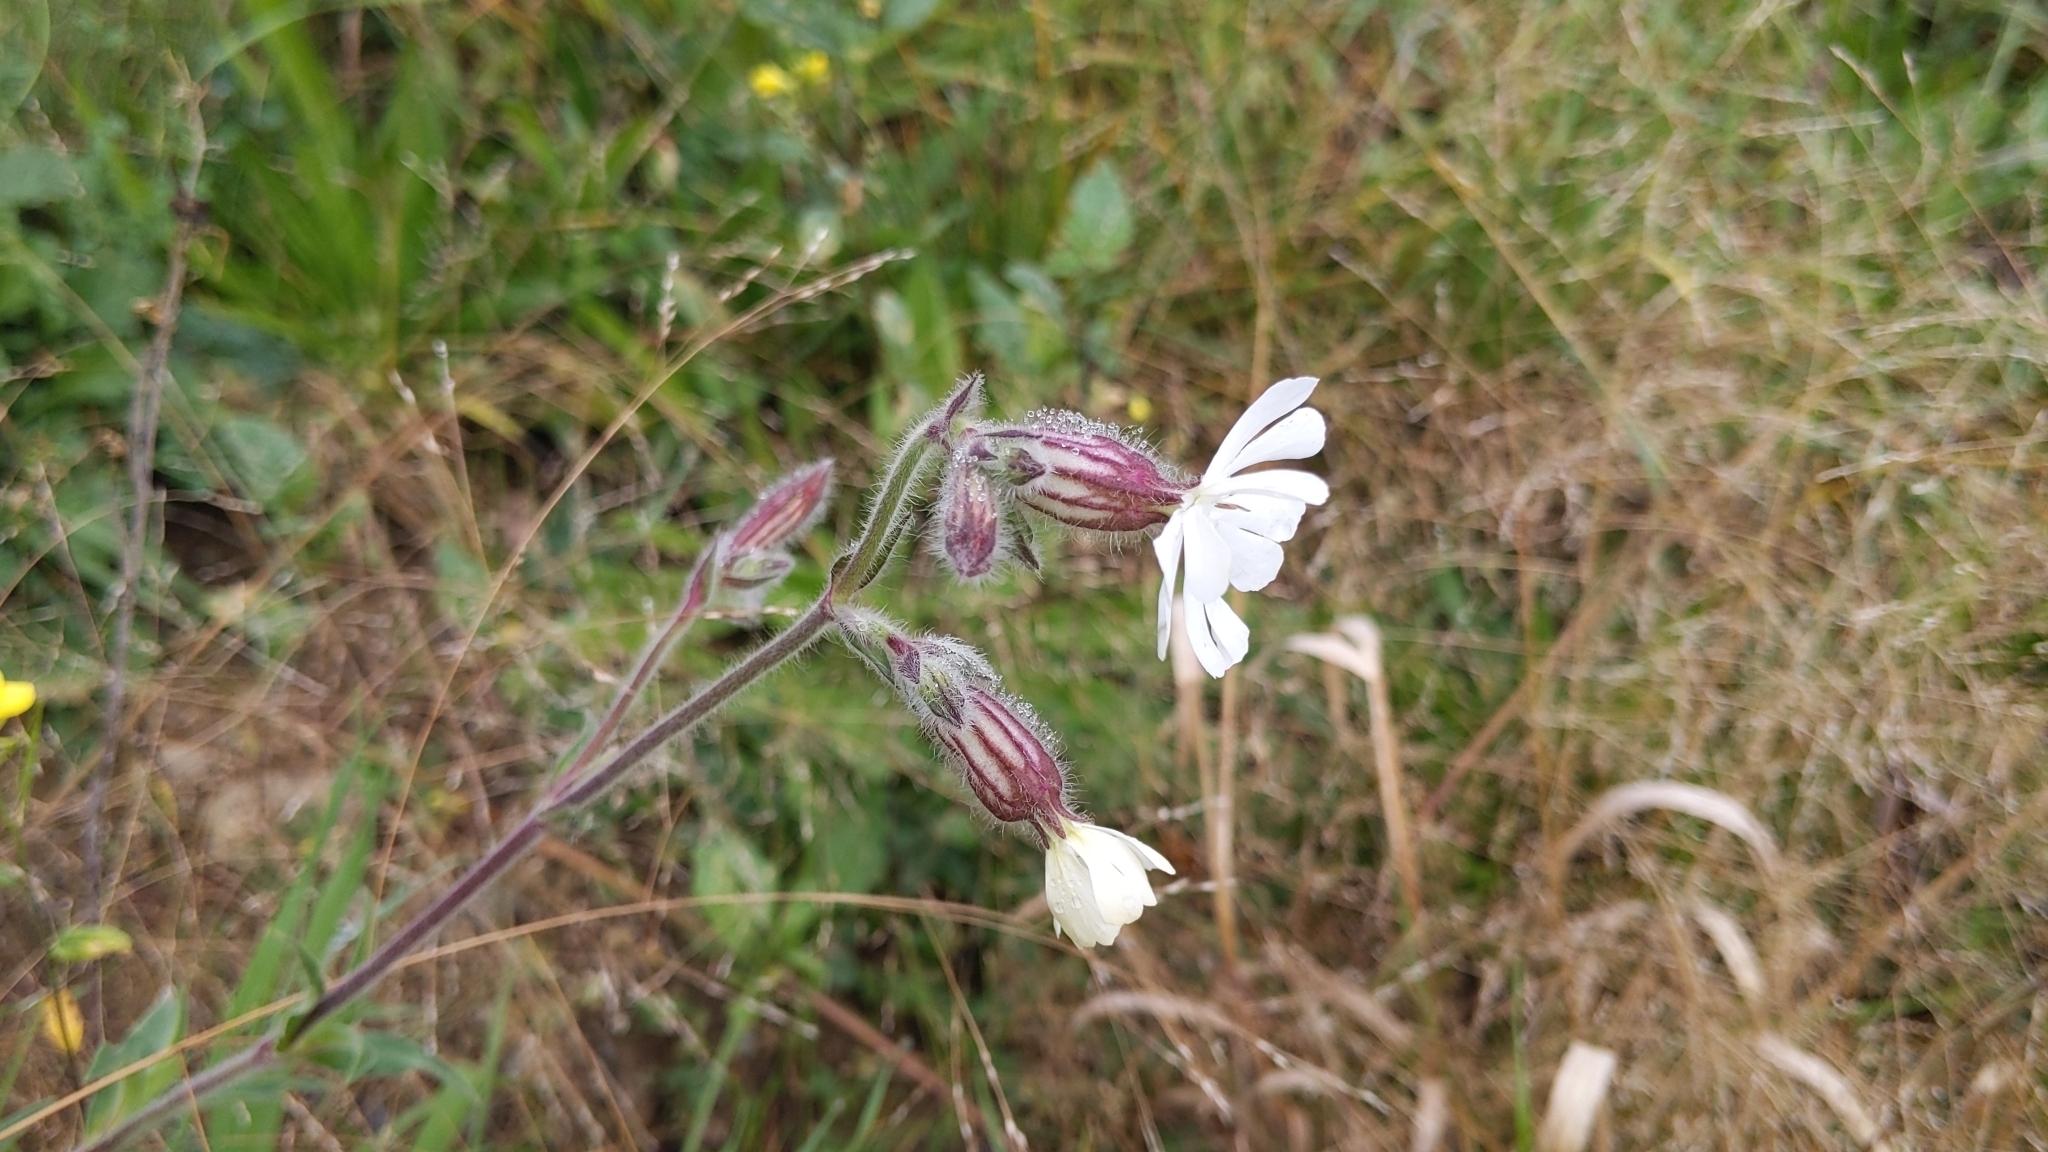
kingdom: Plantae
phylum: Tracheophyta
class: Magnoliopsida
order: Caryophyllales
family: Caryophyllaceae
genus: Silene
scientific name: Silene latifolia
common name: White campion
